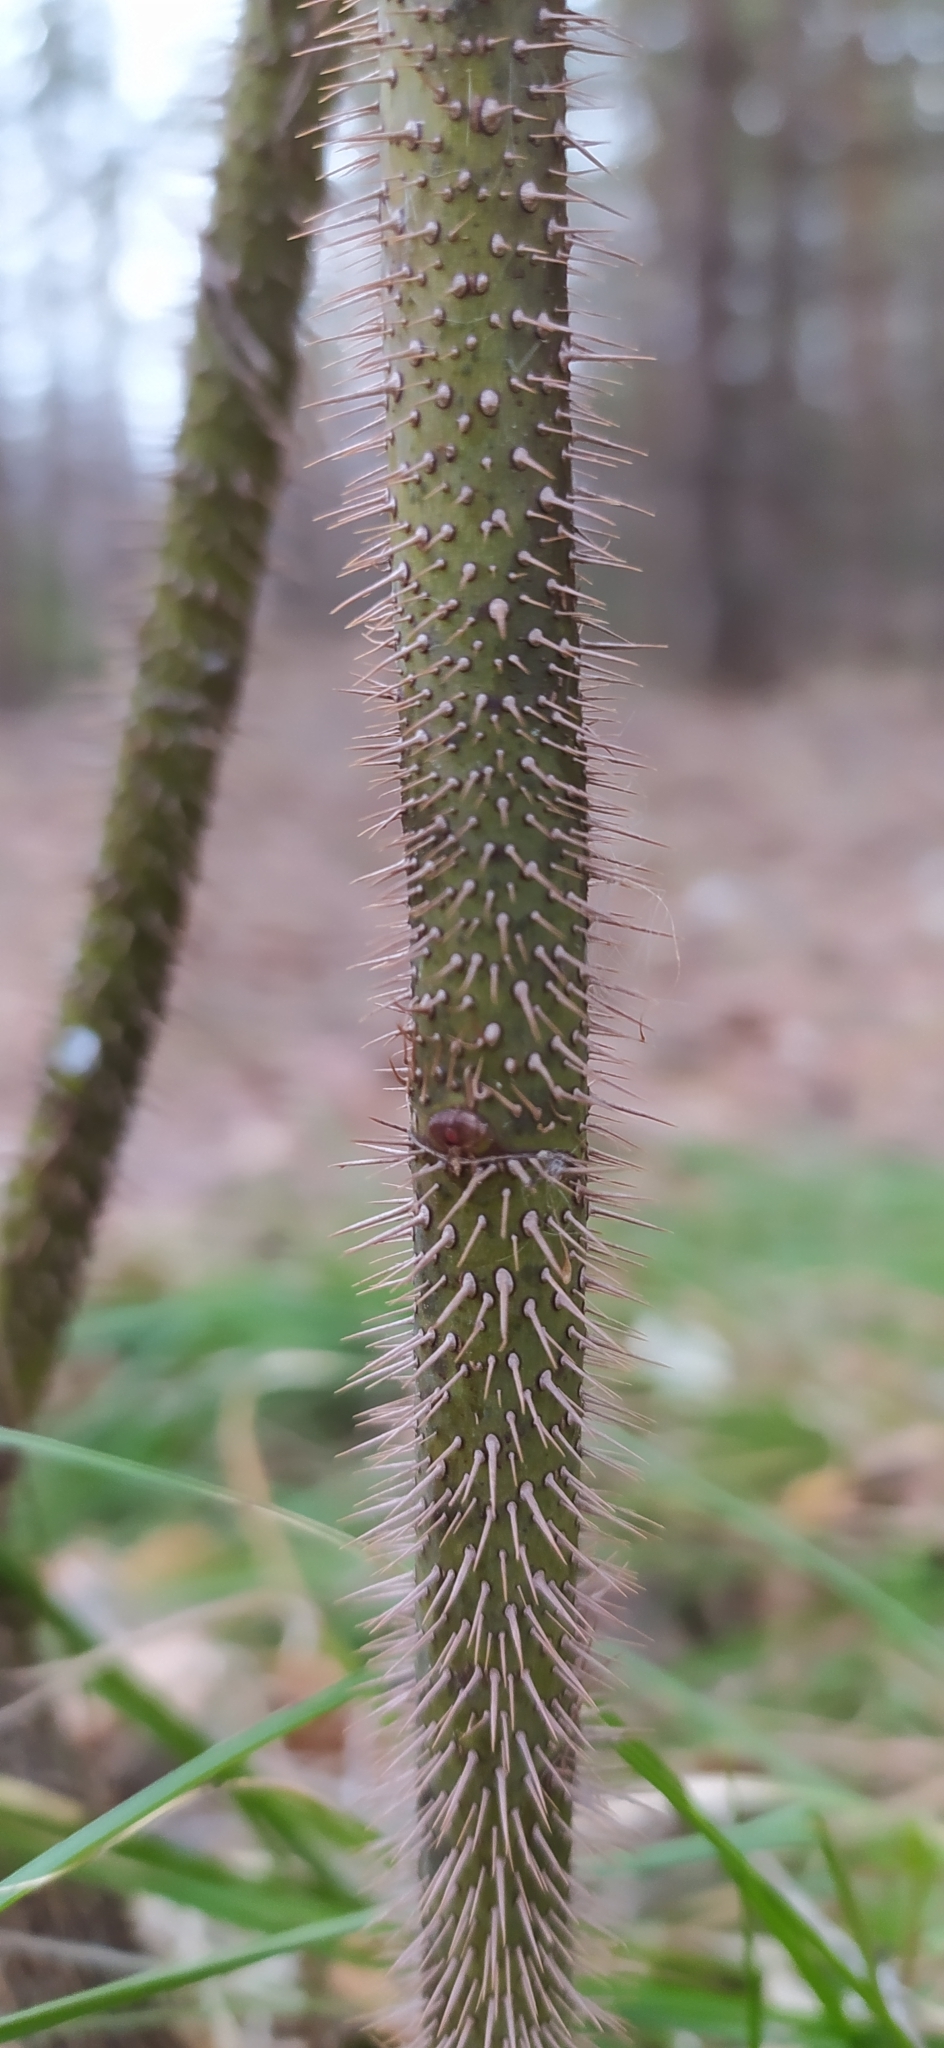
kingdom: Plantae
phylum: Tracheophyta
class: Magnoliopsida
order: Rosales
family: Rosaceae
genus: Rosa
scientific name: Rosa acicularis
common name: Prickly rose
